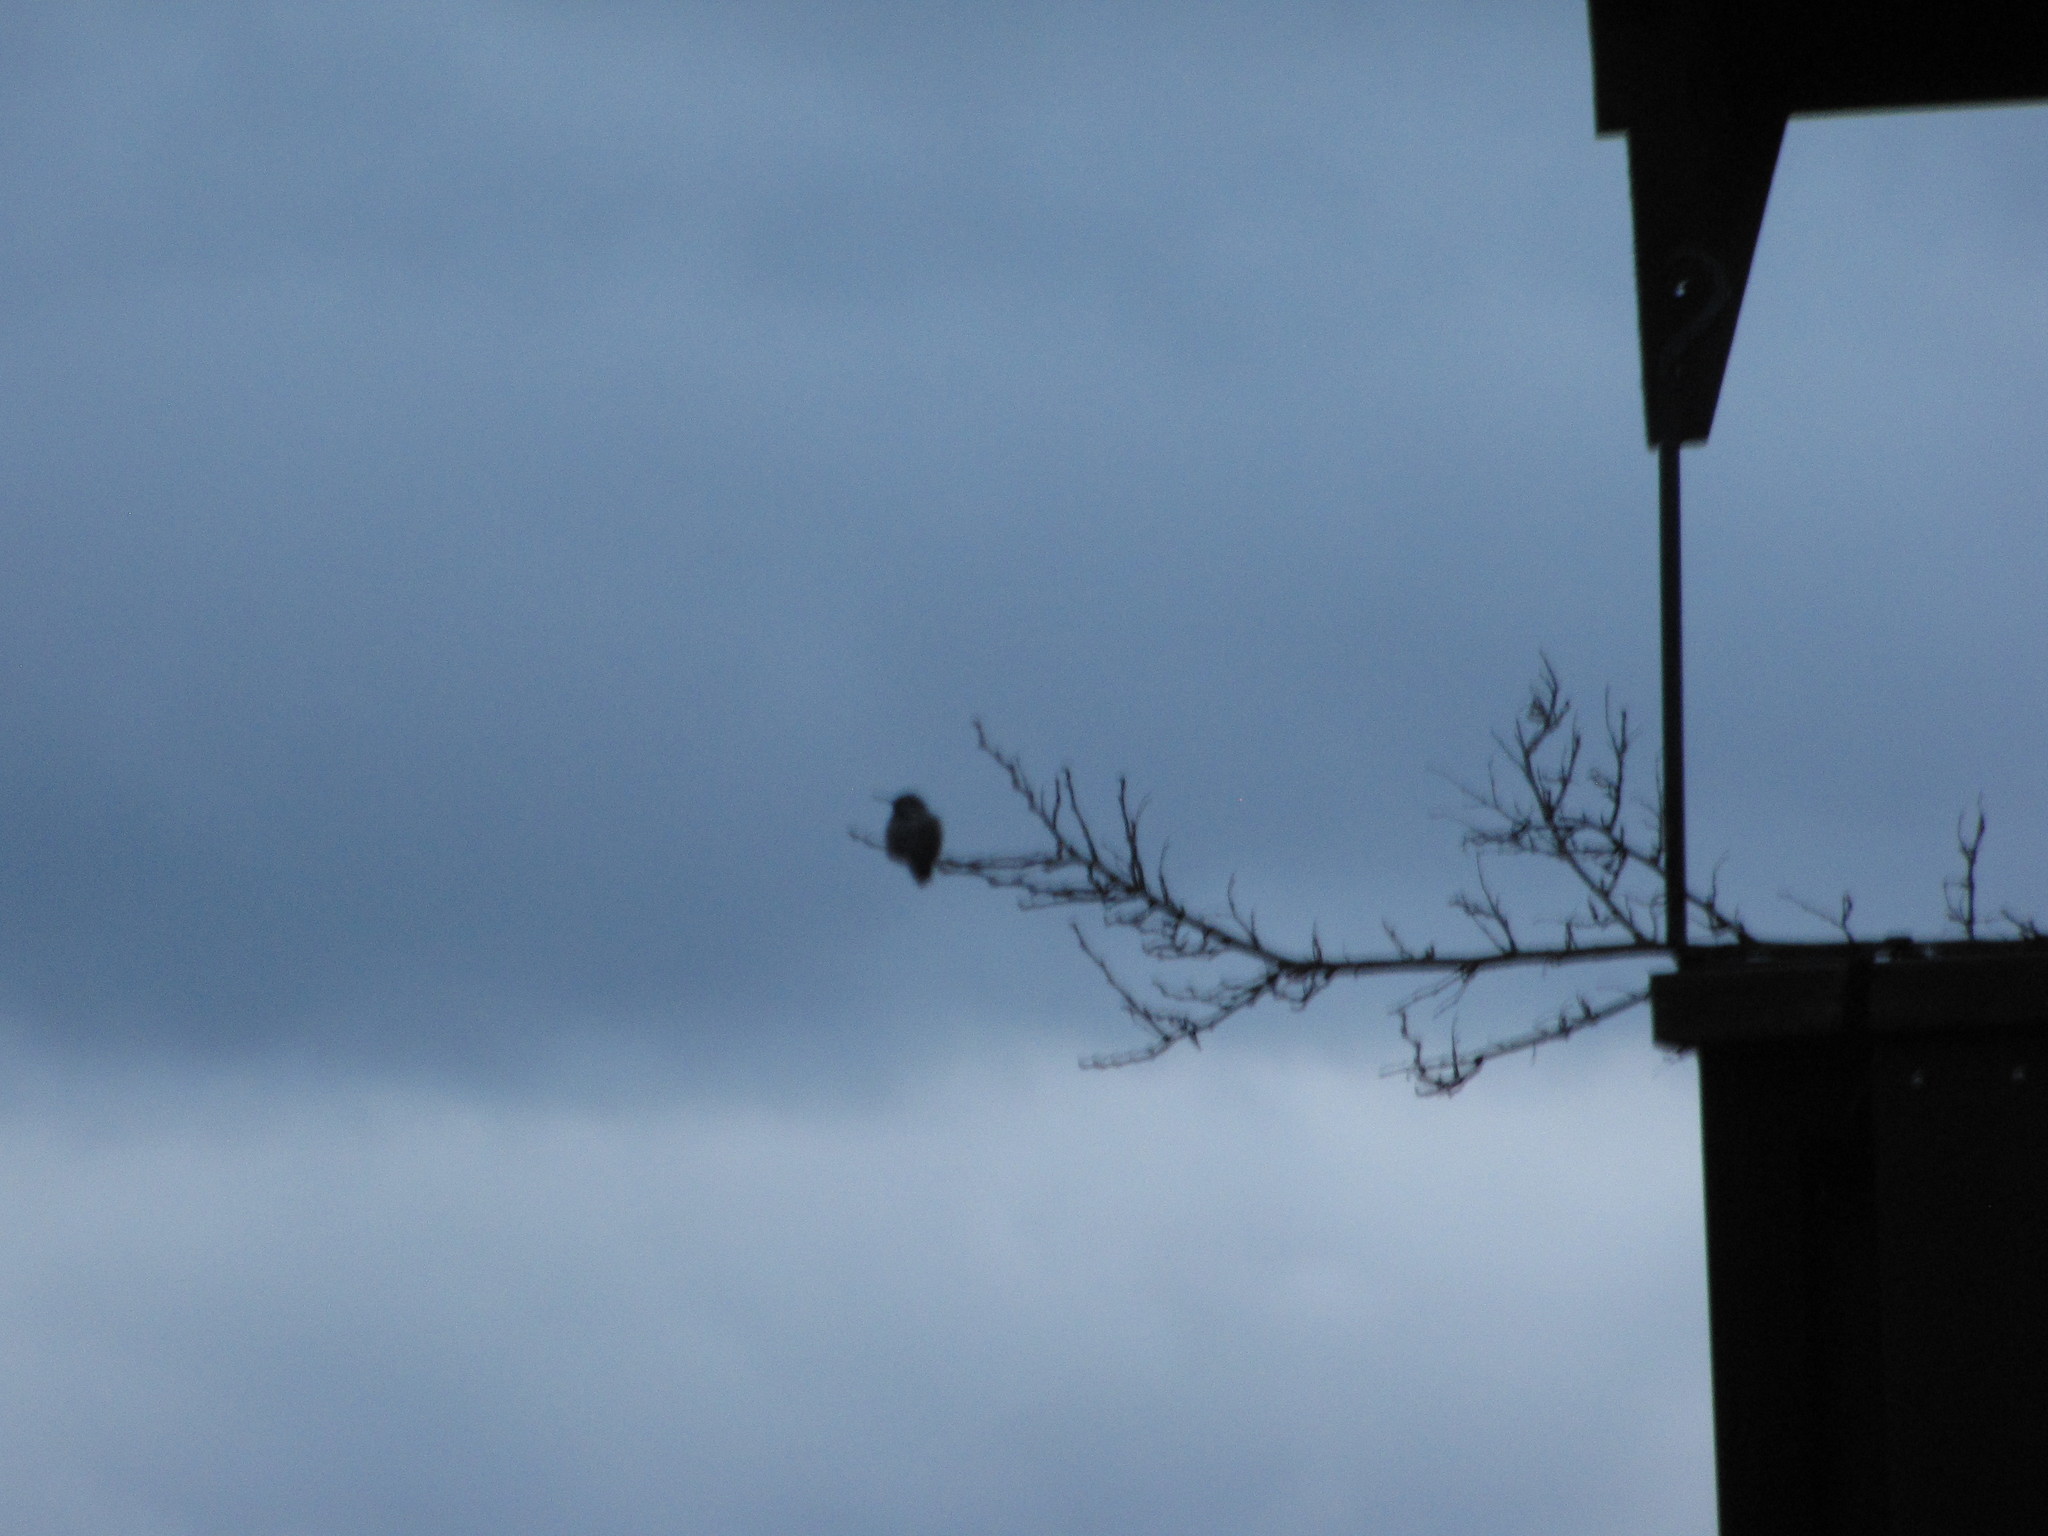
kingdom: Animalia
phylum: Chordata
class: Aves
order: Apodiformes
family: Trochilidae
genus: Calypte
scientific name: Calypte anna
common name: Anna's hummingbird
